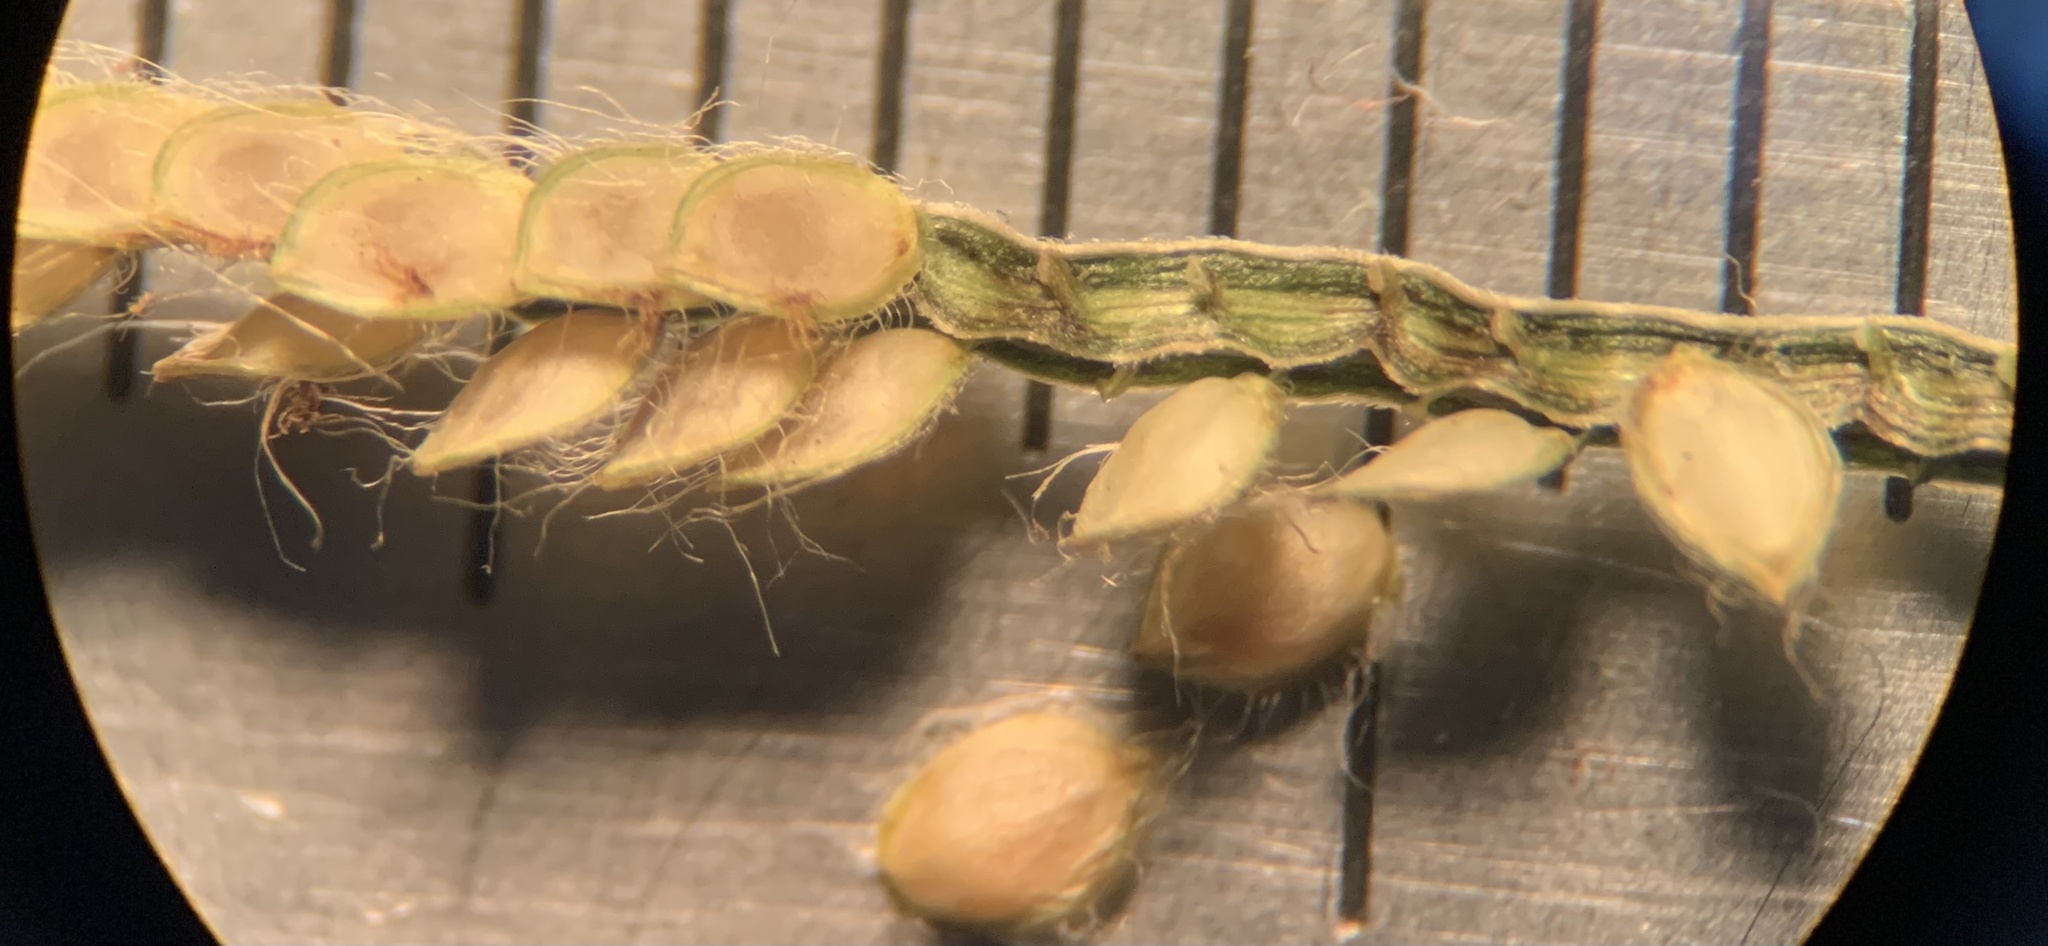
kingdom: Plantae
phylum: Tracheophyta
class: Liliopsida
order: Poales
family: Poaceae
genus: Paspalum
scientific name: Paspalum conjugatum
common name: Hilograss
